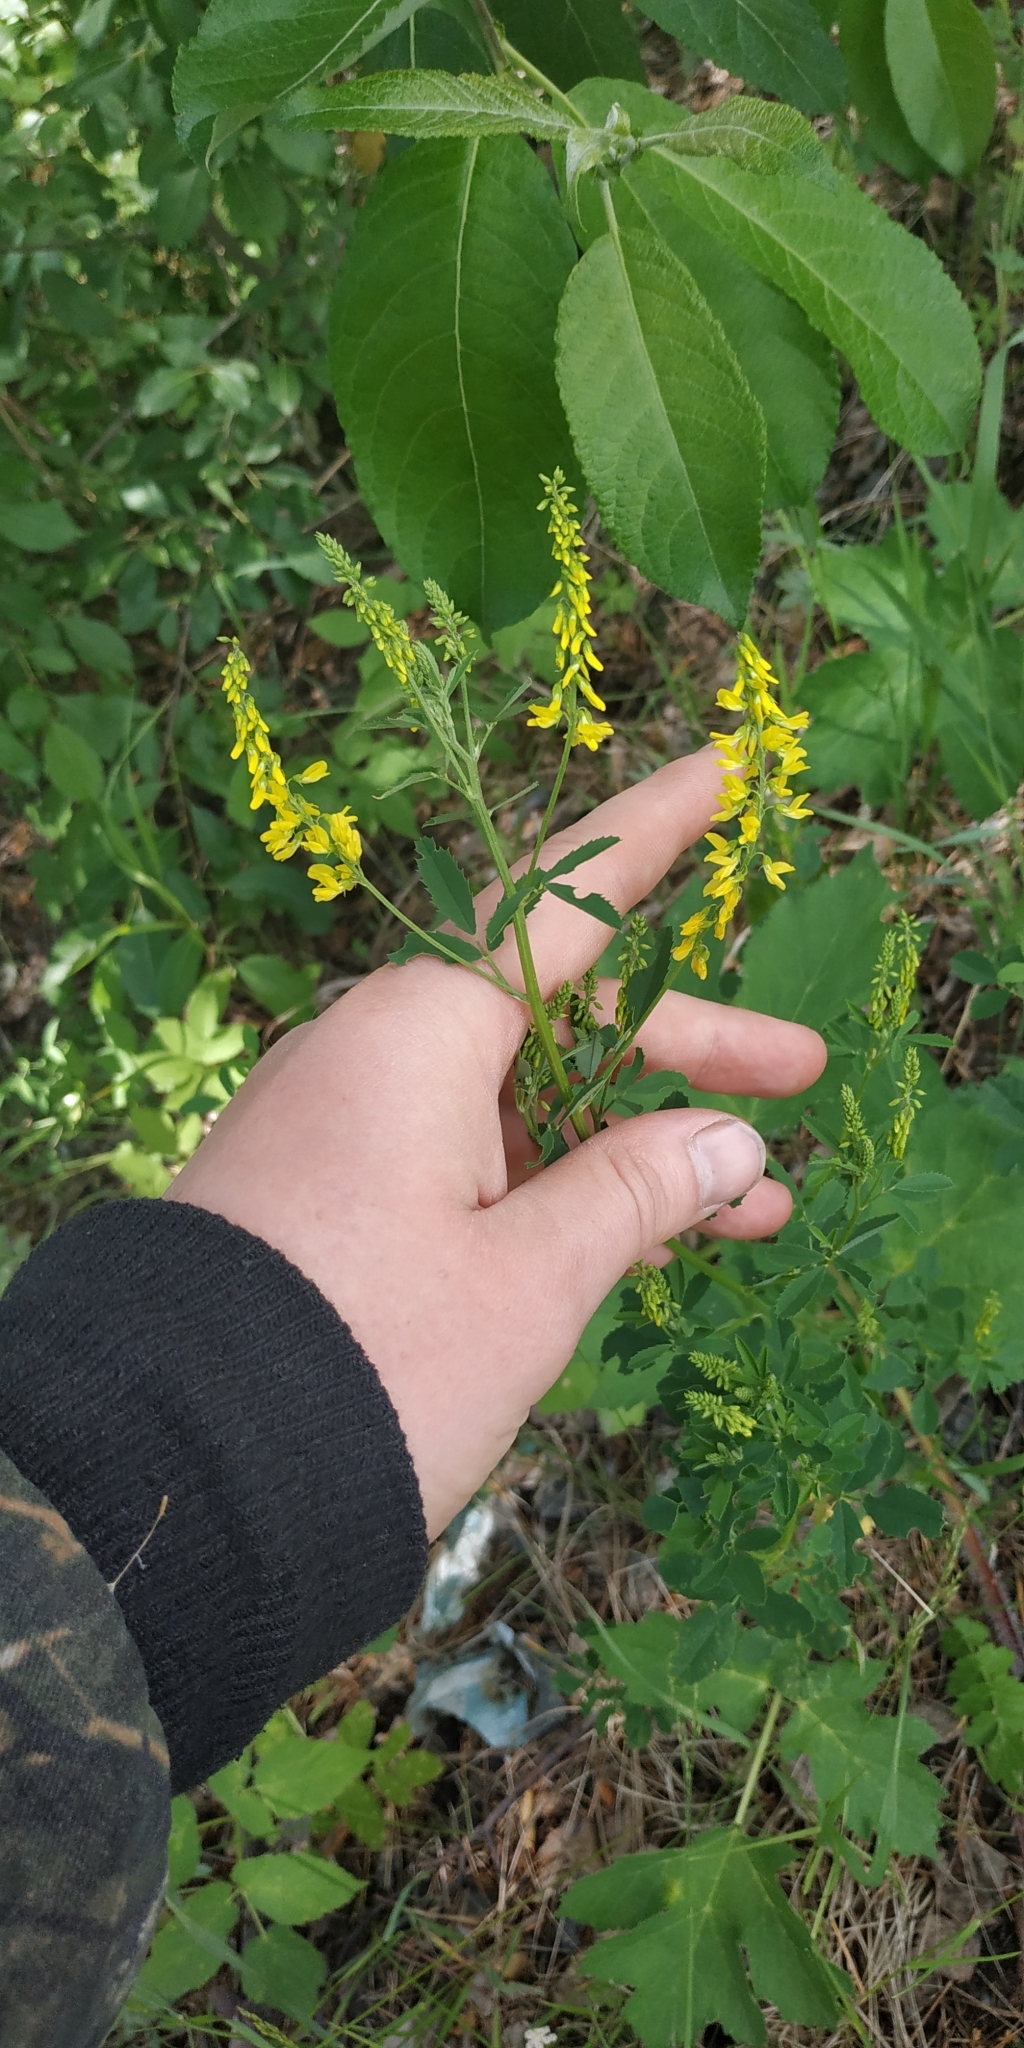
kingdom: Plantae
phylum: Tracheophyta
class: Magnoliopsida
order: Fabales
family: Fabaceae
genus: Melilotus
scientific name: Melilotus officinalis
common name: Sweetclover
